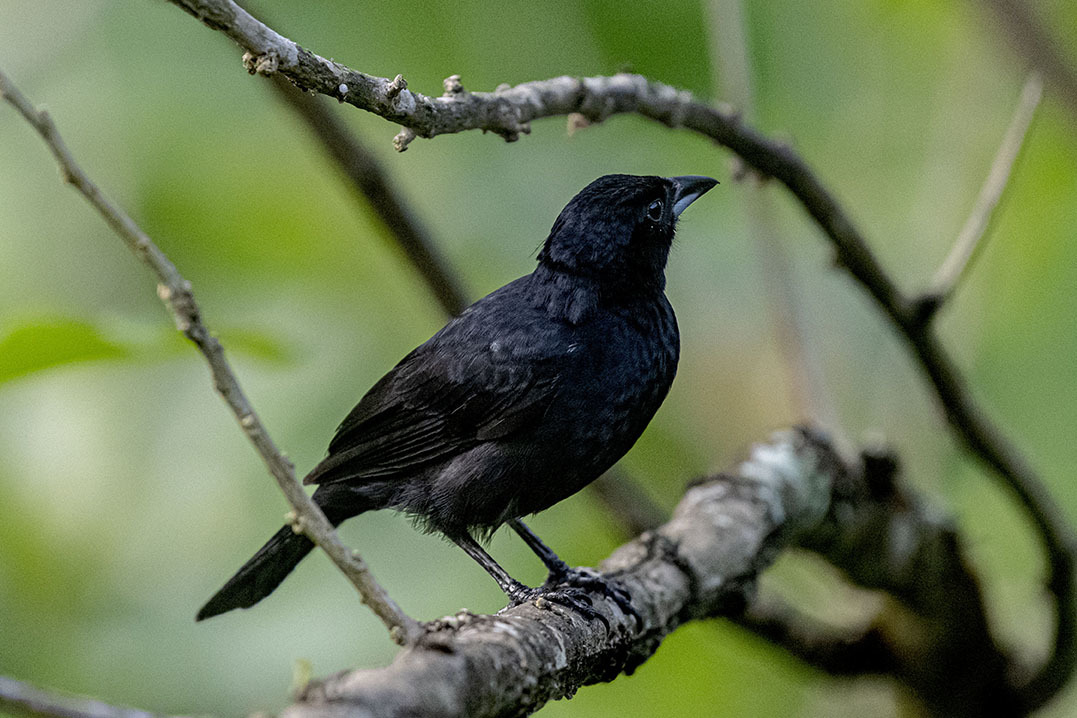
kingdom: Animalia
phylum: Chordata
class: Aves
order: Passeriformes
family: Thraupidae
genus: Tachyphonus
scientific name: Tachyphonus rufus
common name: White-lined tanager
